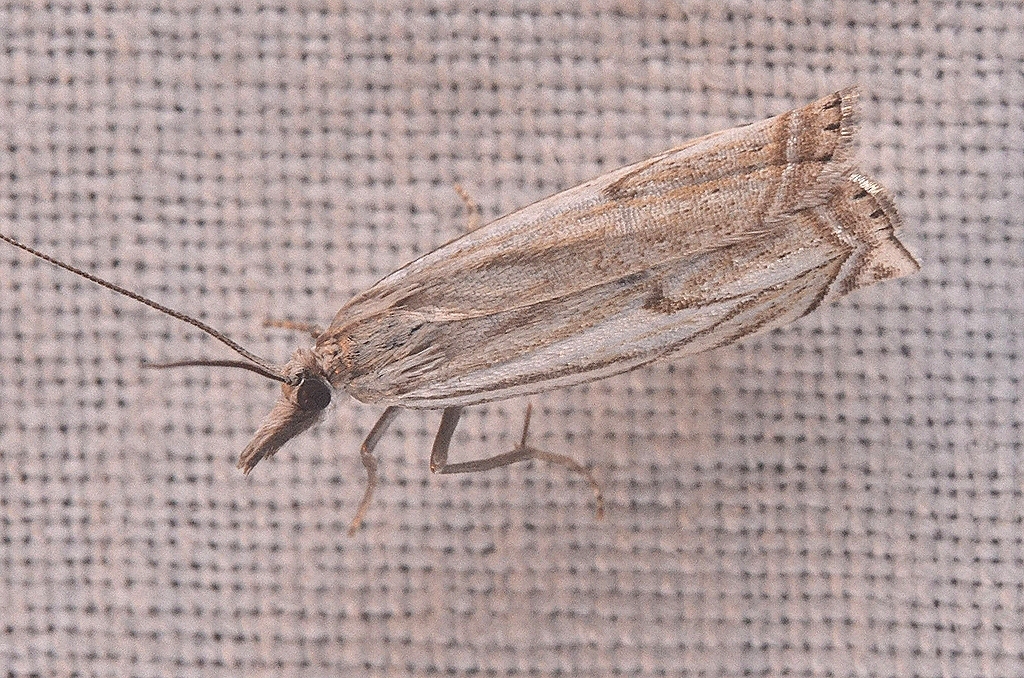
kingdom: Animalia
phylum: Arthropoda
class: Insecta
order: Lepidoptera
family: Crambidae
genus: Crambus
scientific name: Crambus nemorella
